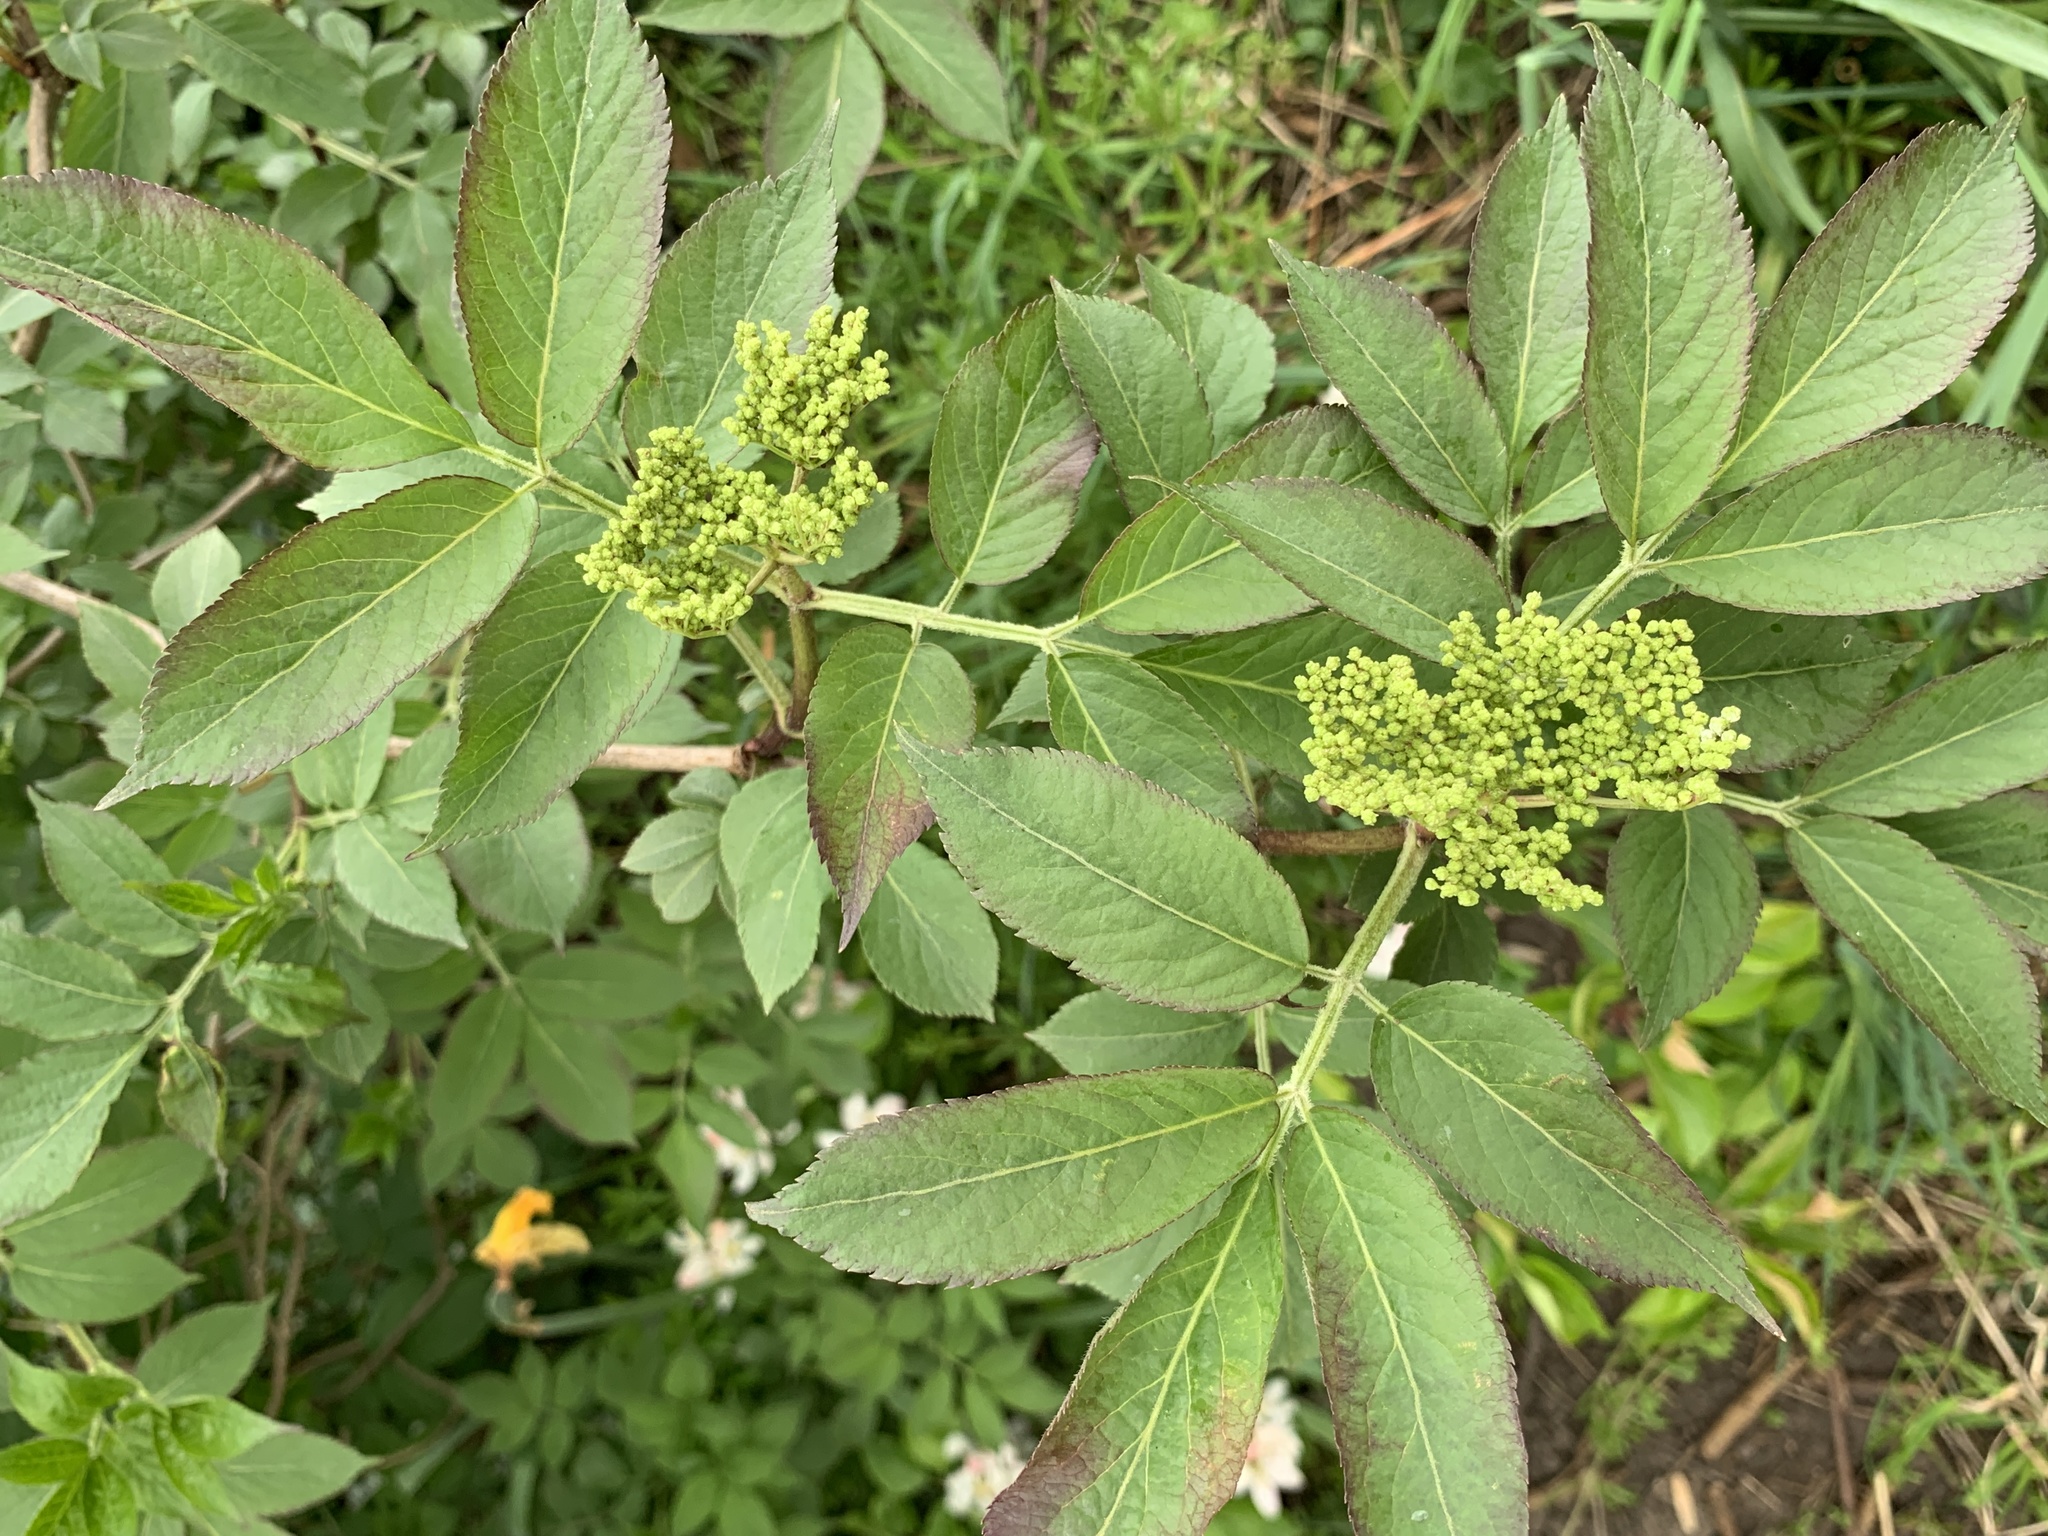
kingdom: Plantae
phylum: Tracheophyta
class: Magnoliopsida
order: Dipsacales
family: Viburnaceae
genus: Sambucus
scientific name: Sambucus nigra
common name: Elder
